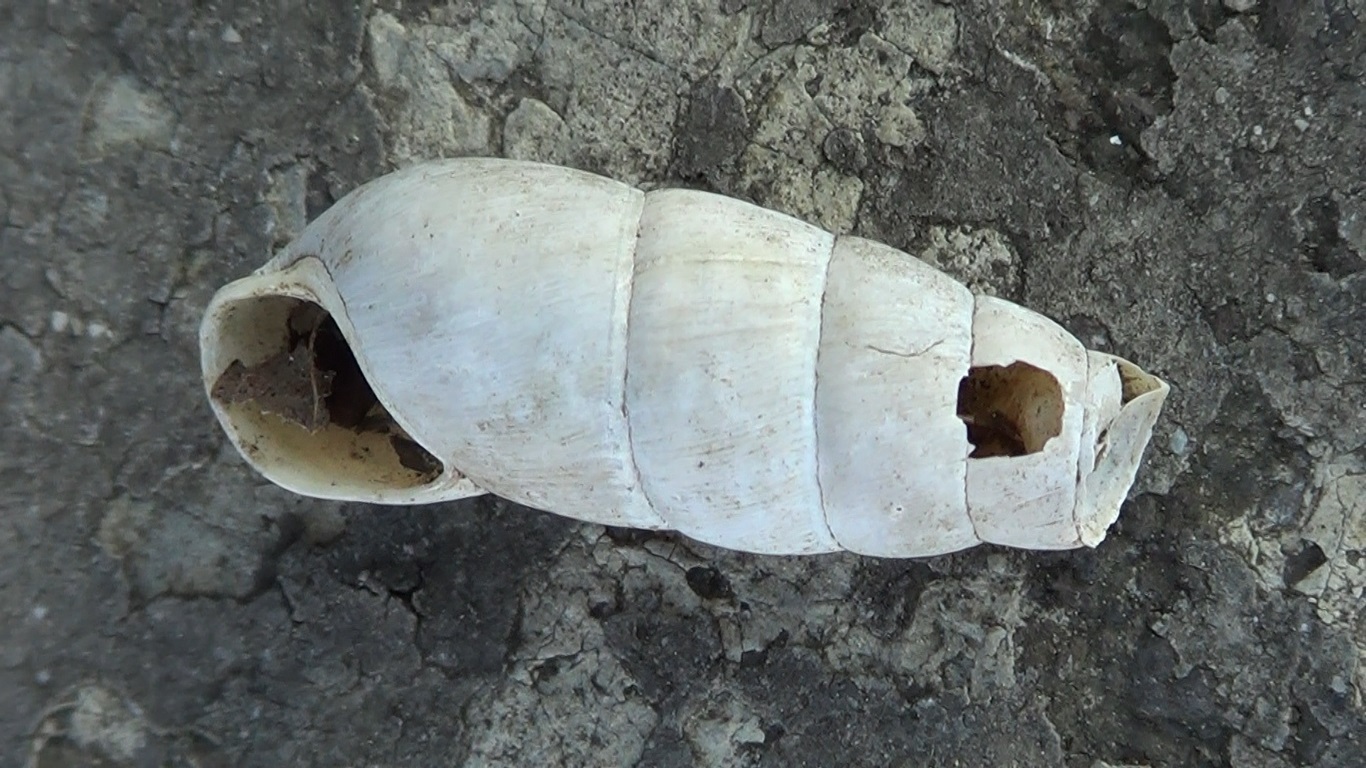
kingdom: Animalia
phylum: Mollusca
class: Gastropoda
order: Stylommatophora
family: Achatinidae
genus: Rumina
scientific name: Rumina decollata
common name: Decollate snail
